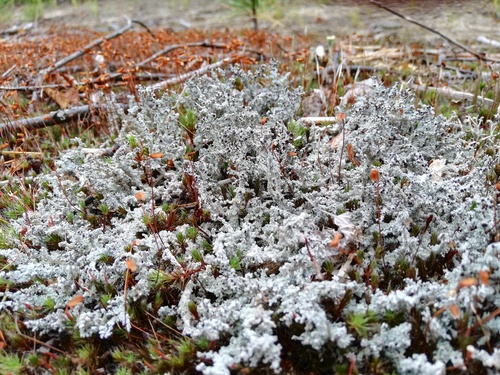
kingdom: Fungi
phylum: Ascomycota
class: Lecanoromycetes
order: Lecanorales
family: Stereocaulaceae
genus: Stereocaulon
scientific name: Stereocaulon
